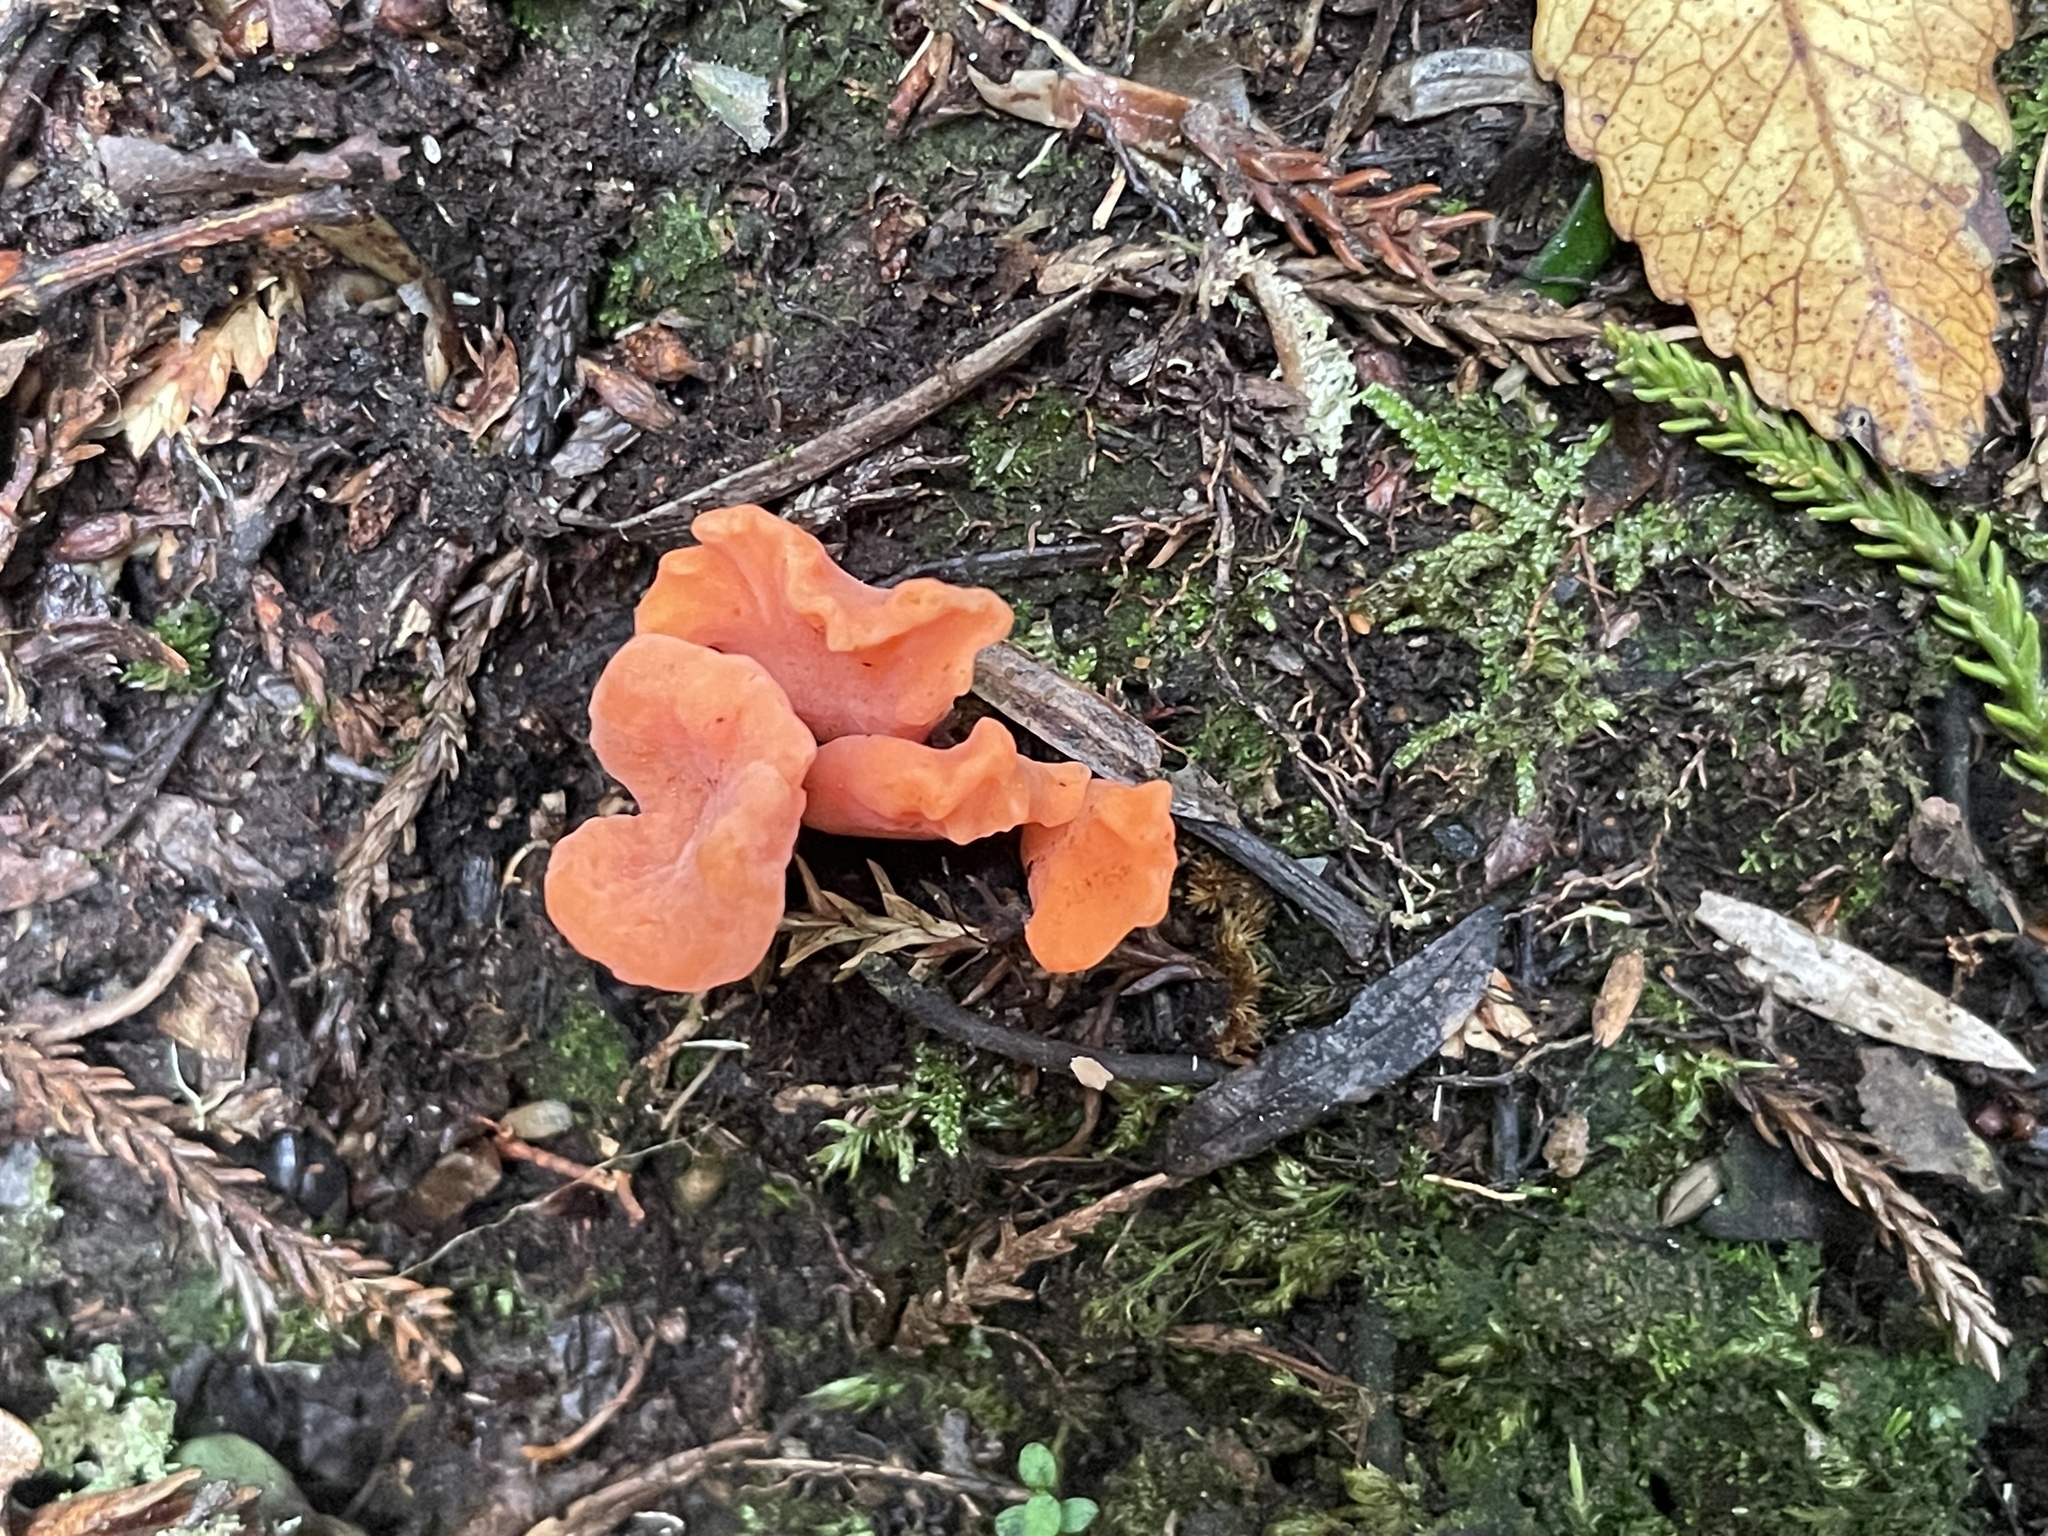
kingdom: Fungi
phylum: Basidiomycota
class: Agaricomycetes
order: Agaricales
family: Clavariaceae
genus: Clavulinopsis
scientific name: Clavulinopsis sulcata
